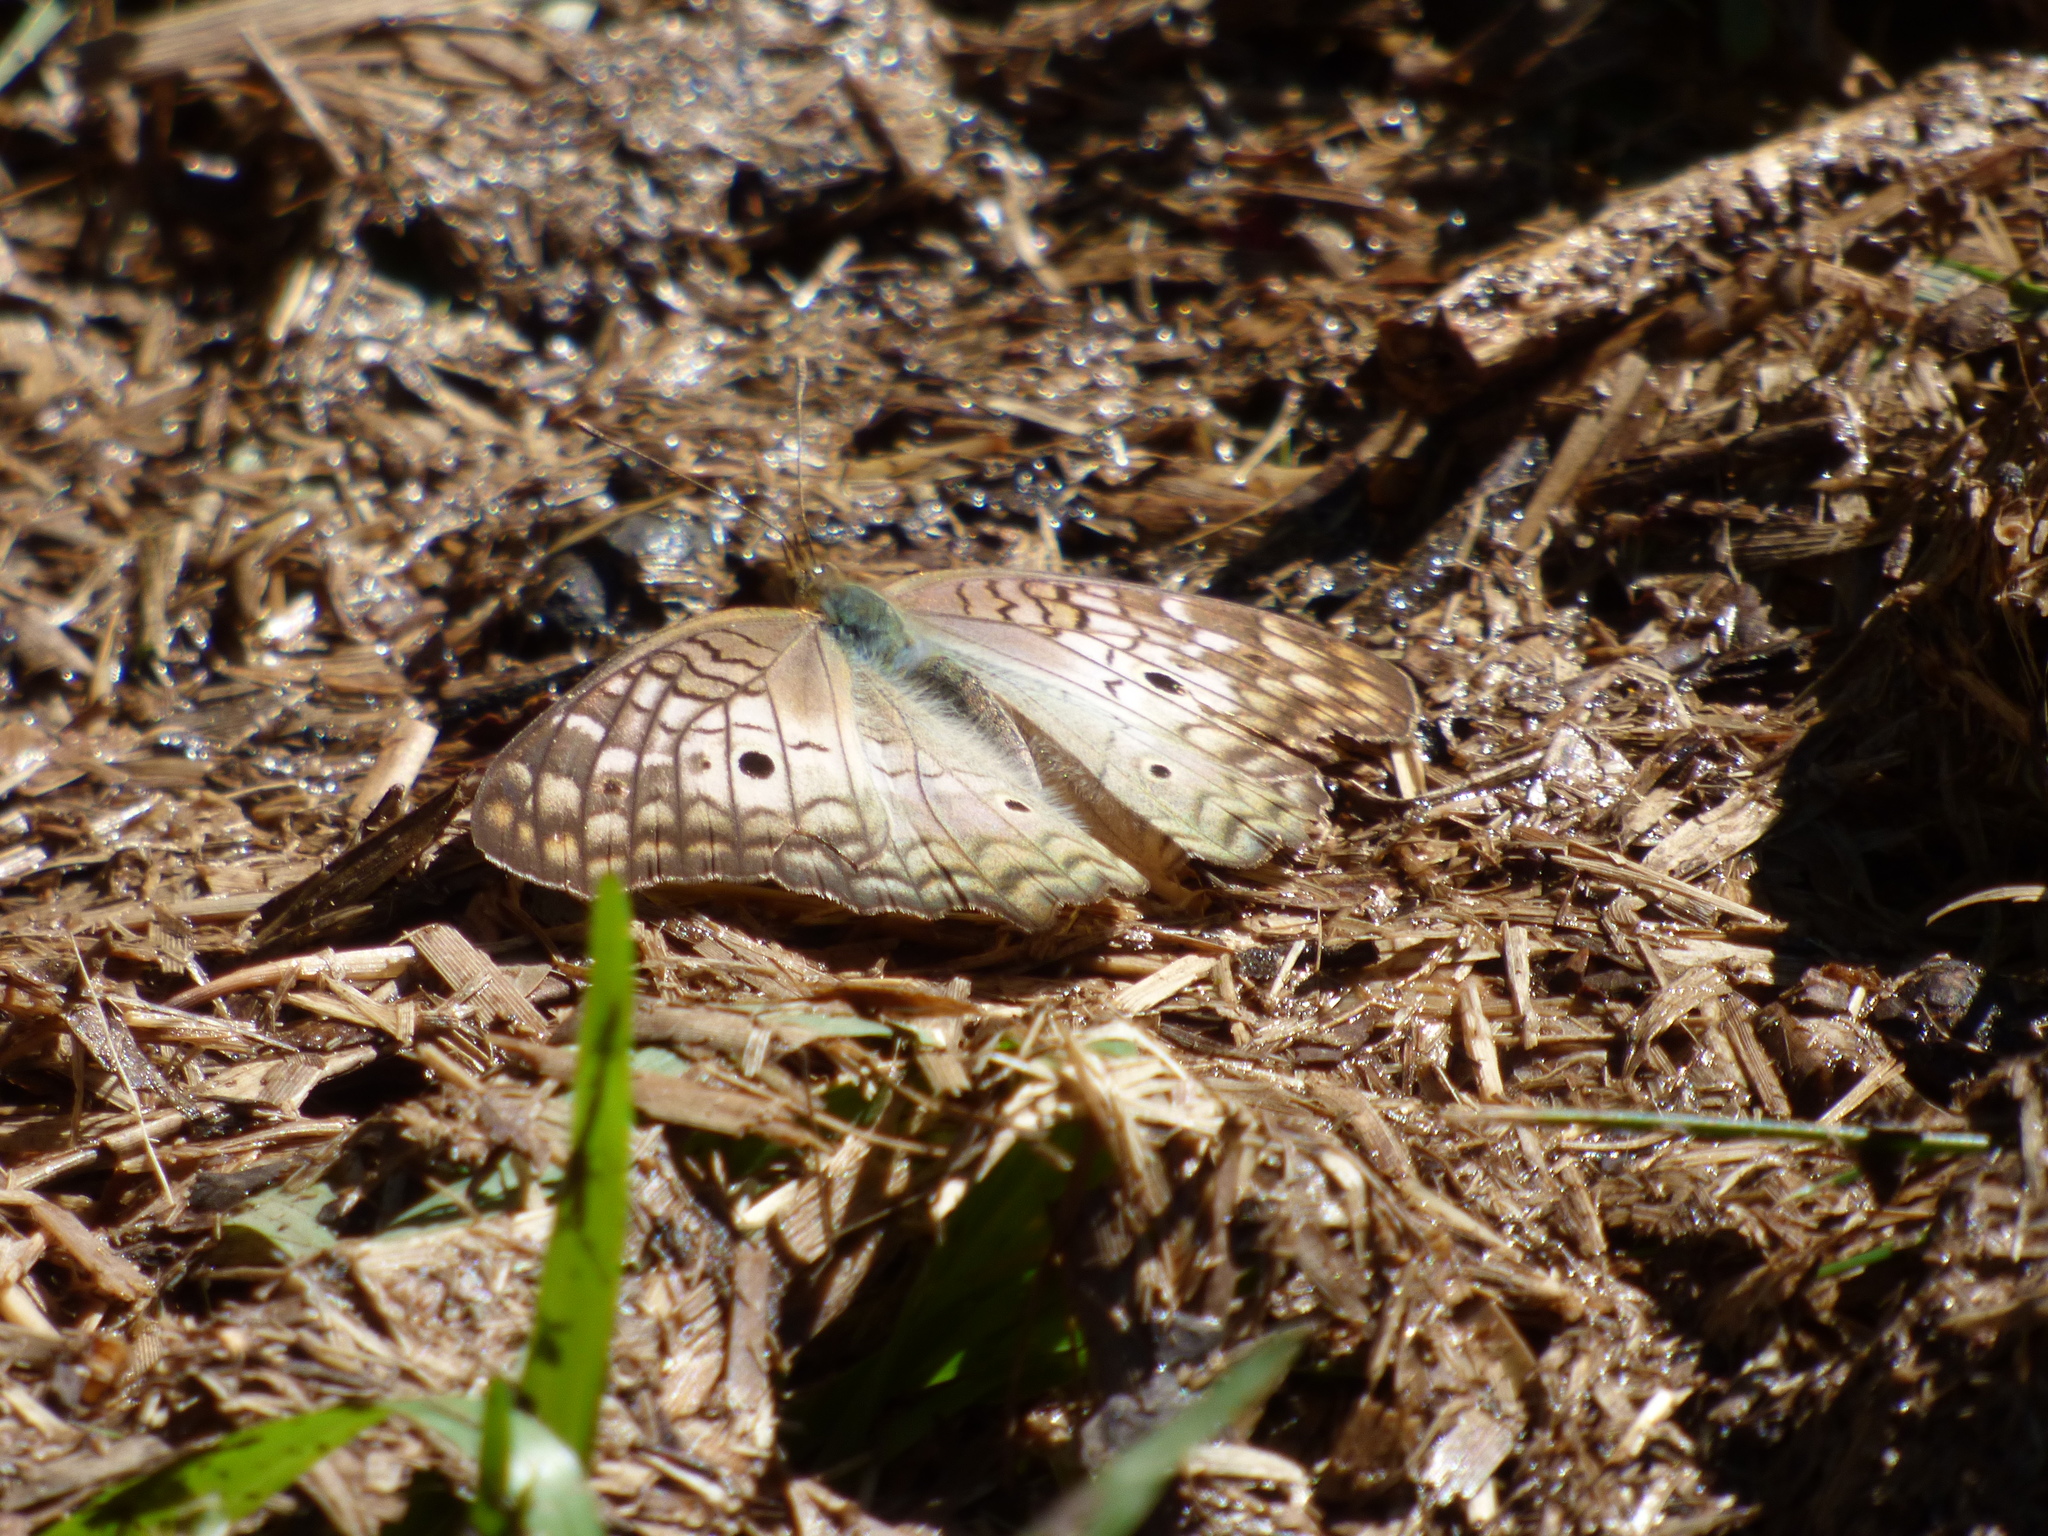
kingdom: Animalia
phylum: Arthropoda
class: Insecta
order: Lepidoptera
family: Nymphalidae
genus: Anartia
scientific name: Anartia jatrophae
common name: White peacock
